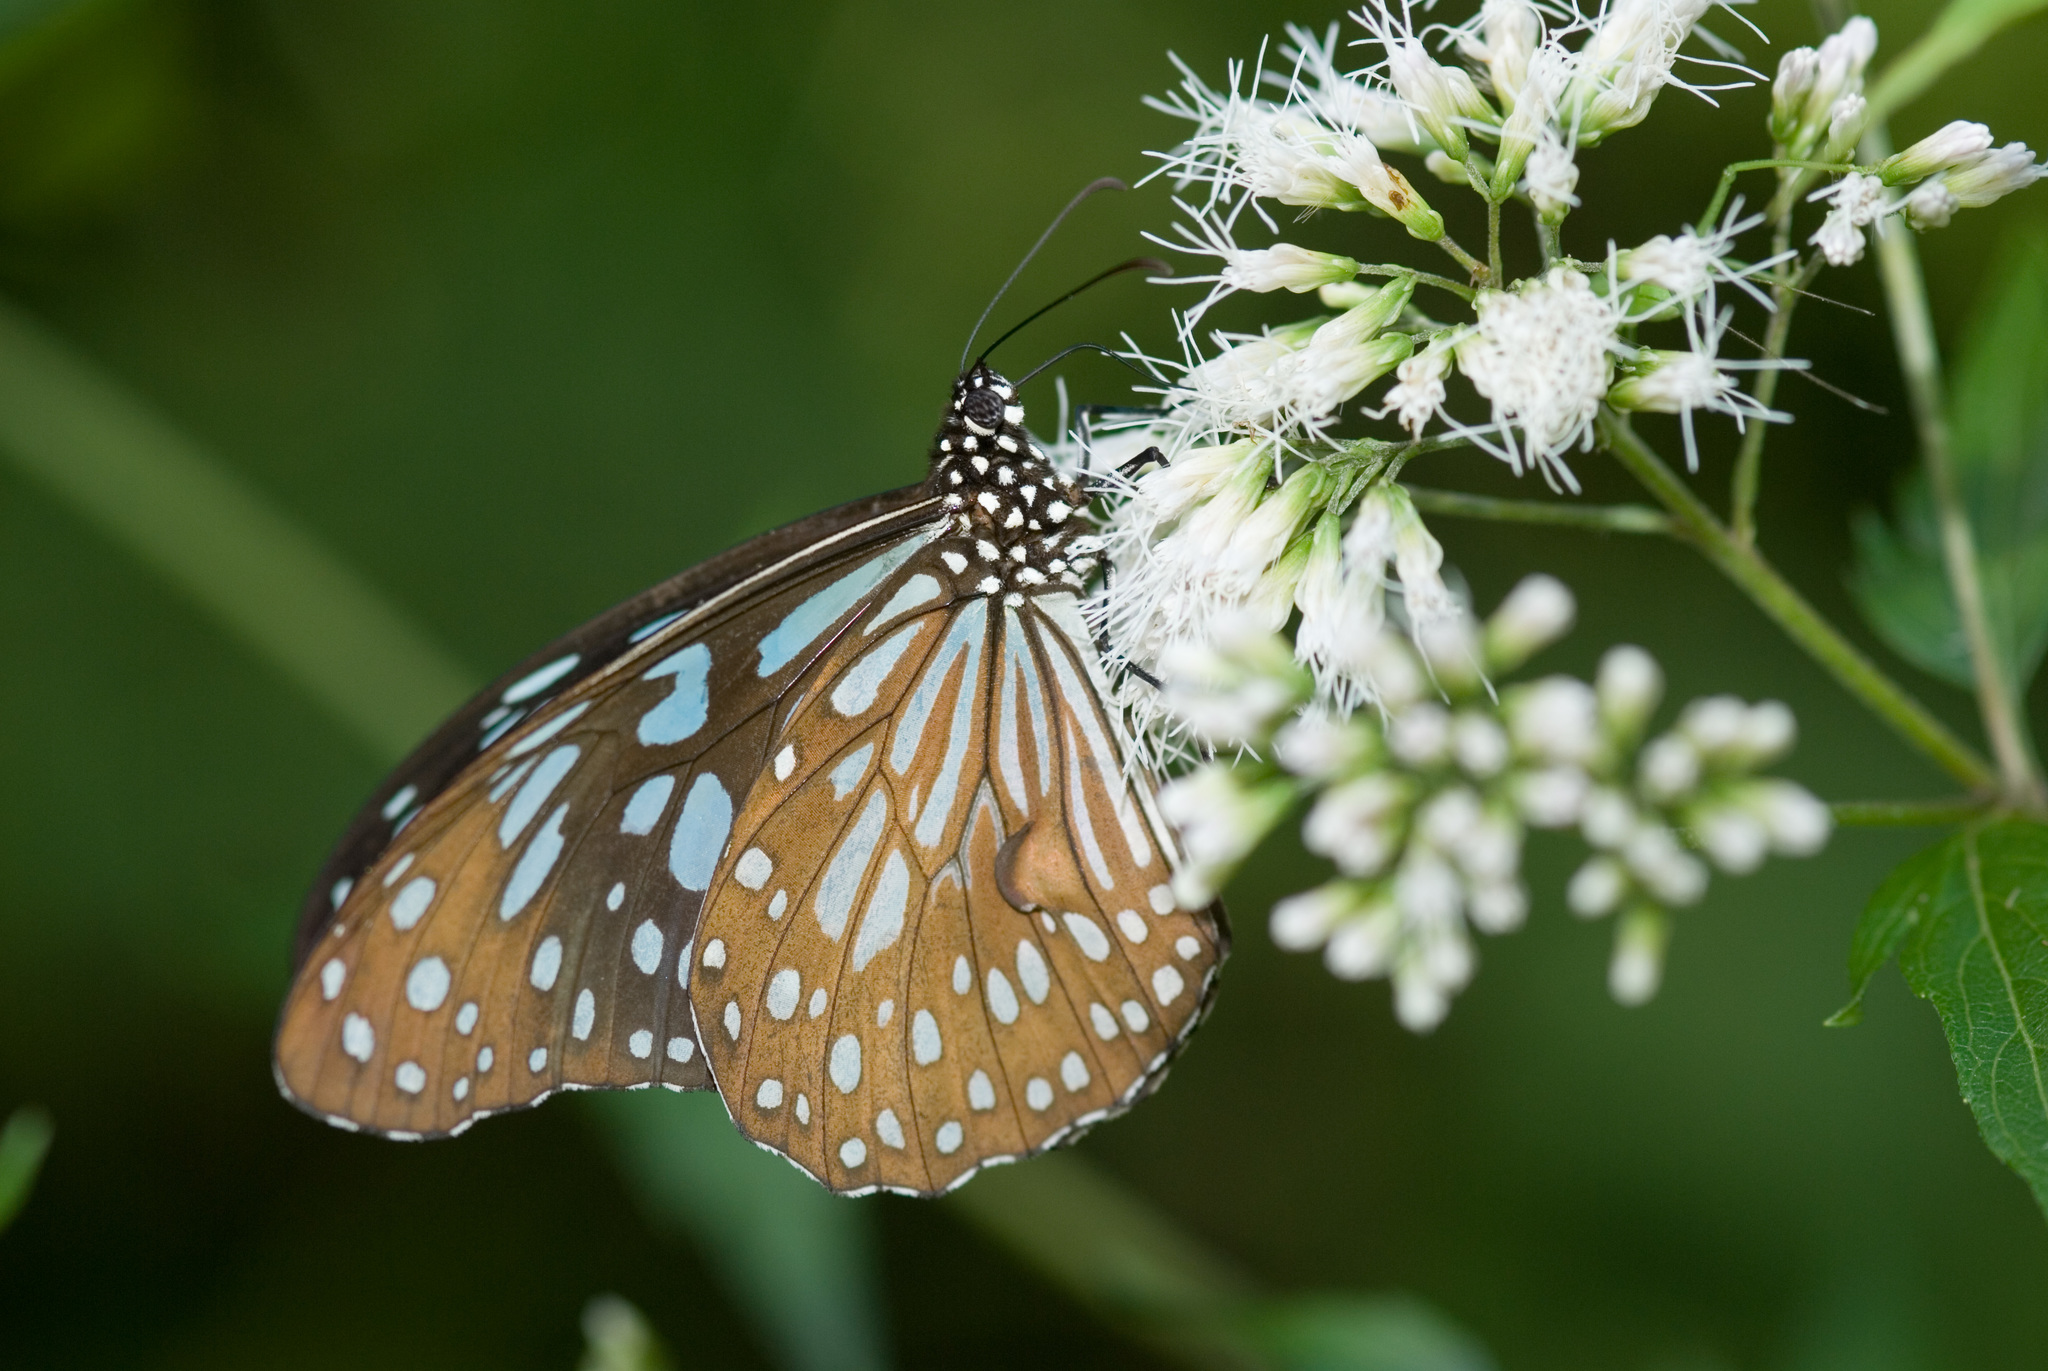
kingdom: Animalia
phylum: Arthropoda
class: Insecta
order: Lepidoptera
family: Nymphalidae
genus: Tirumala
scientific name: Tirumala limniace
